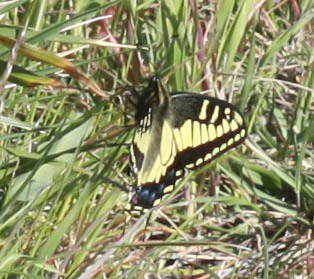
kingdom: Animalia
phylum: Arthropoda
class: Insecta
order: Lepidoptera
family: Papilionidae
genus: Papilio
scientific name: Papilio zelicaon
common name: Anise swallowtail
